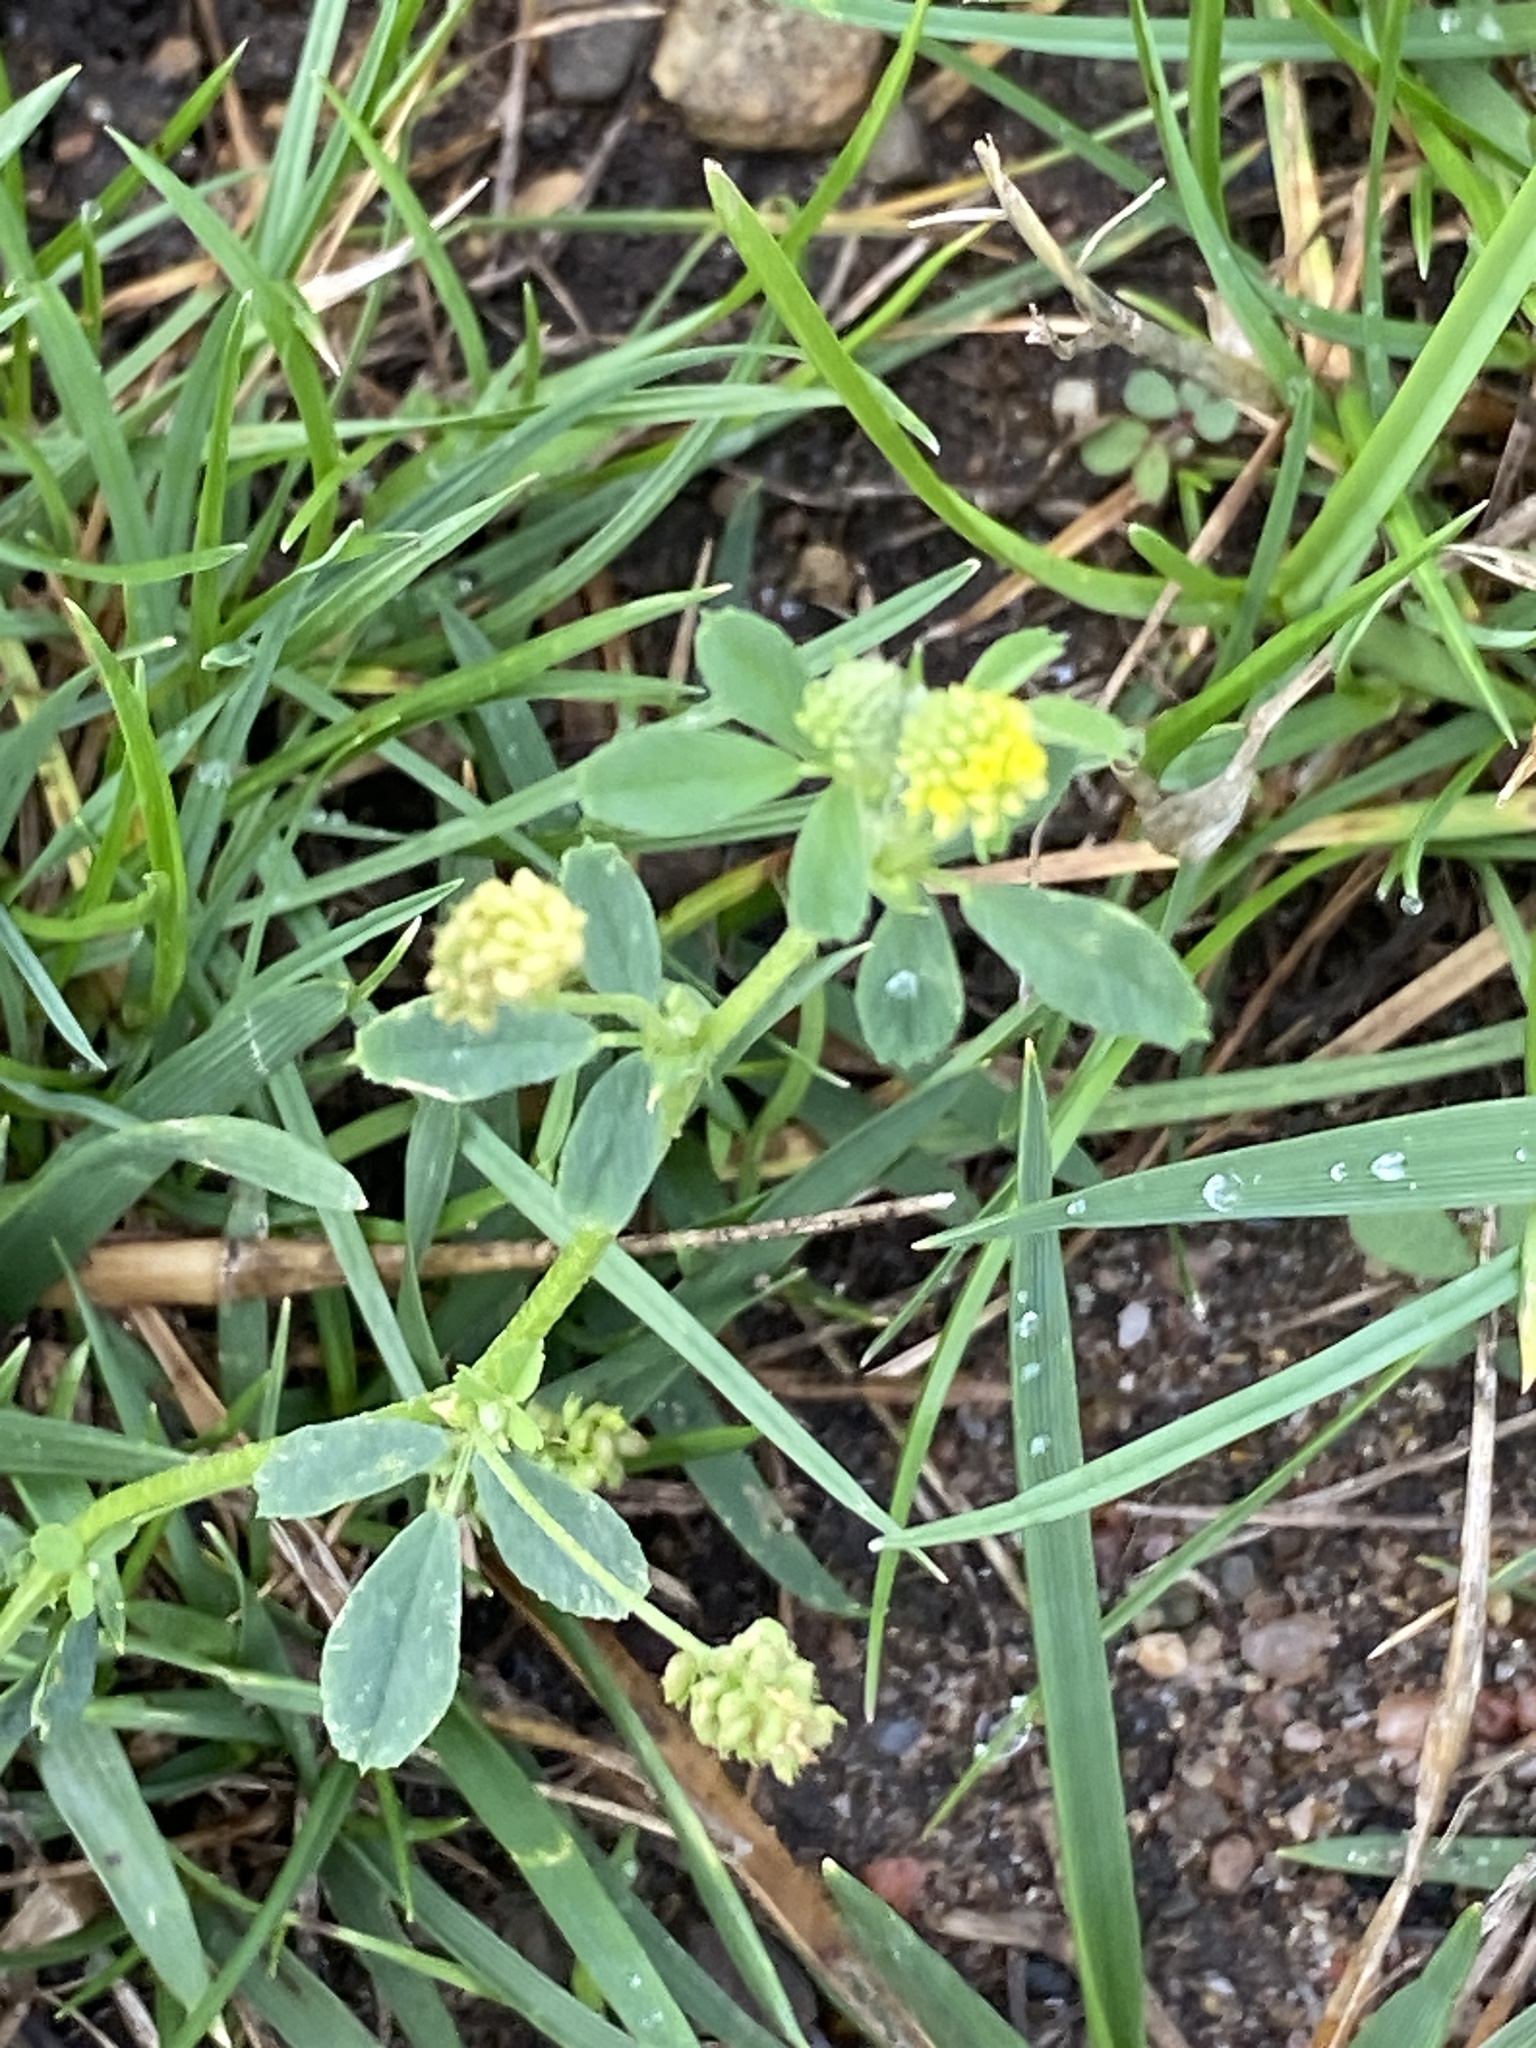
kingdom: Plantae
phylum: Tracheophyta
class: Magnoliopsida
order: Fabales
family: Fabaceae
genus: Medicago
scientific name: Medicago lupulina
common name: Black medick
